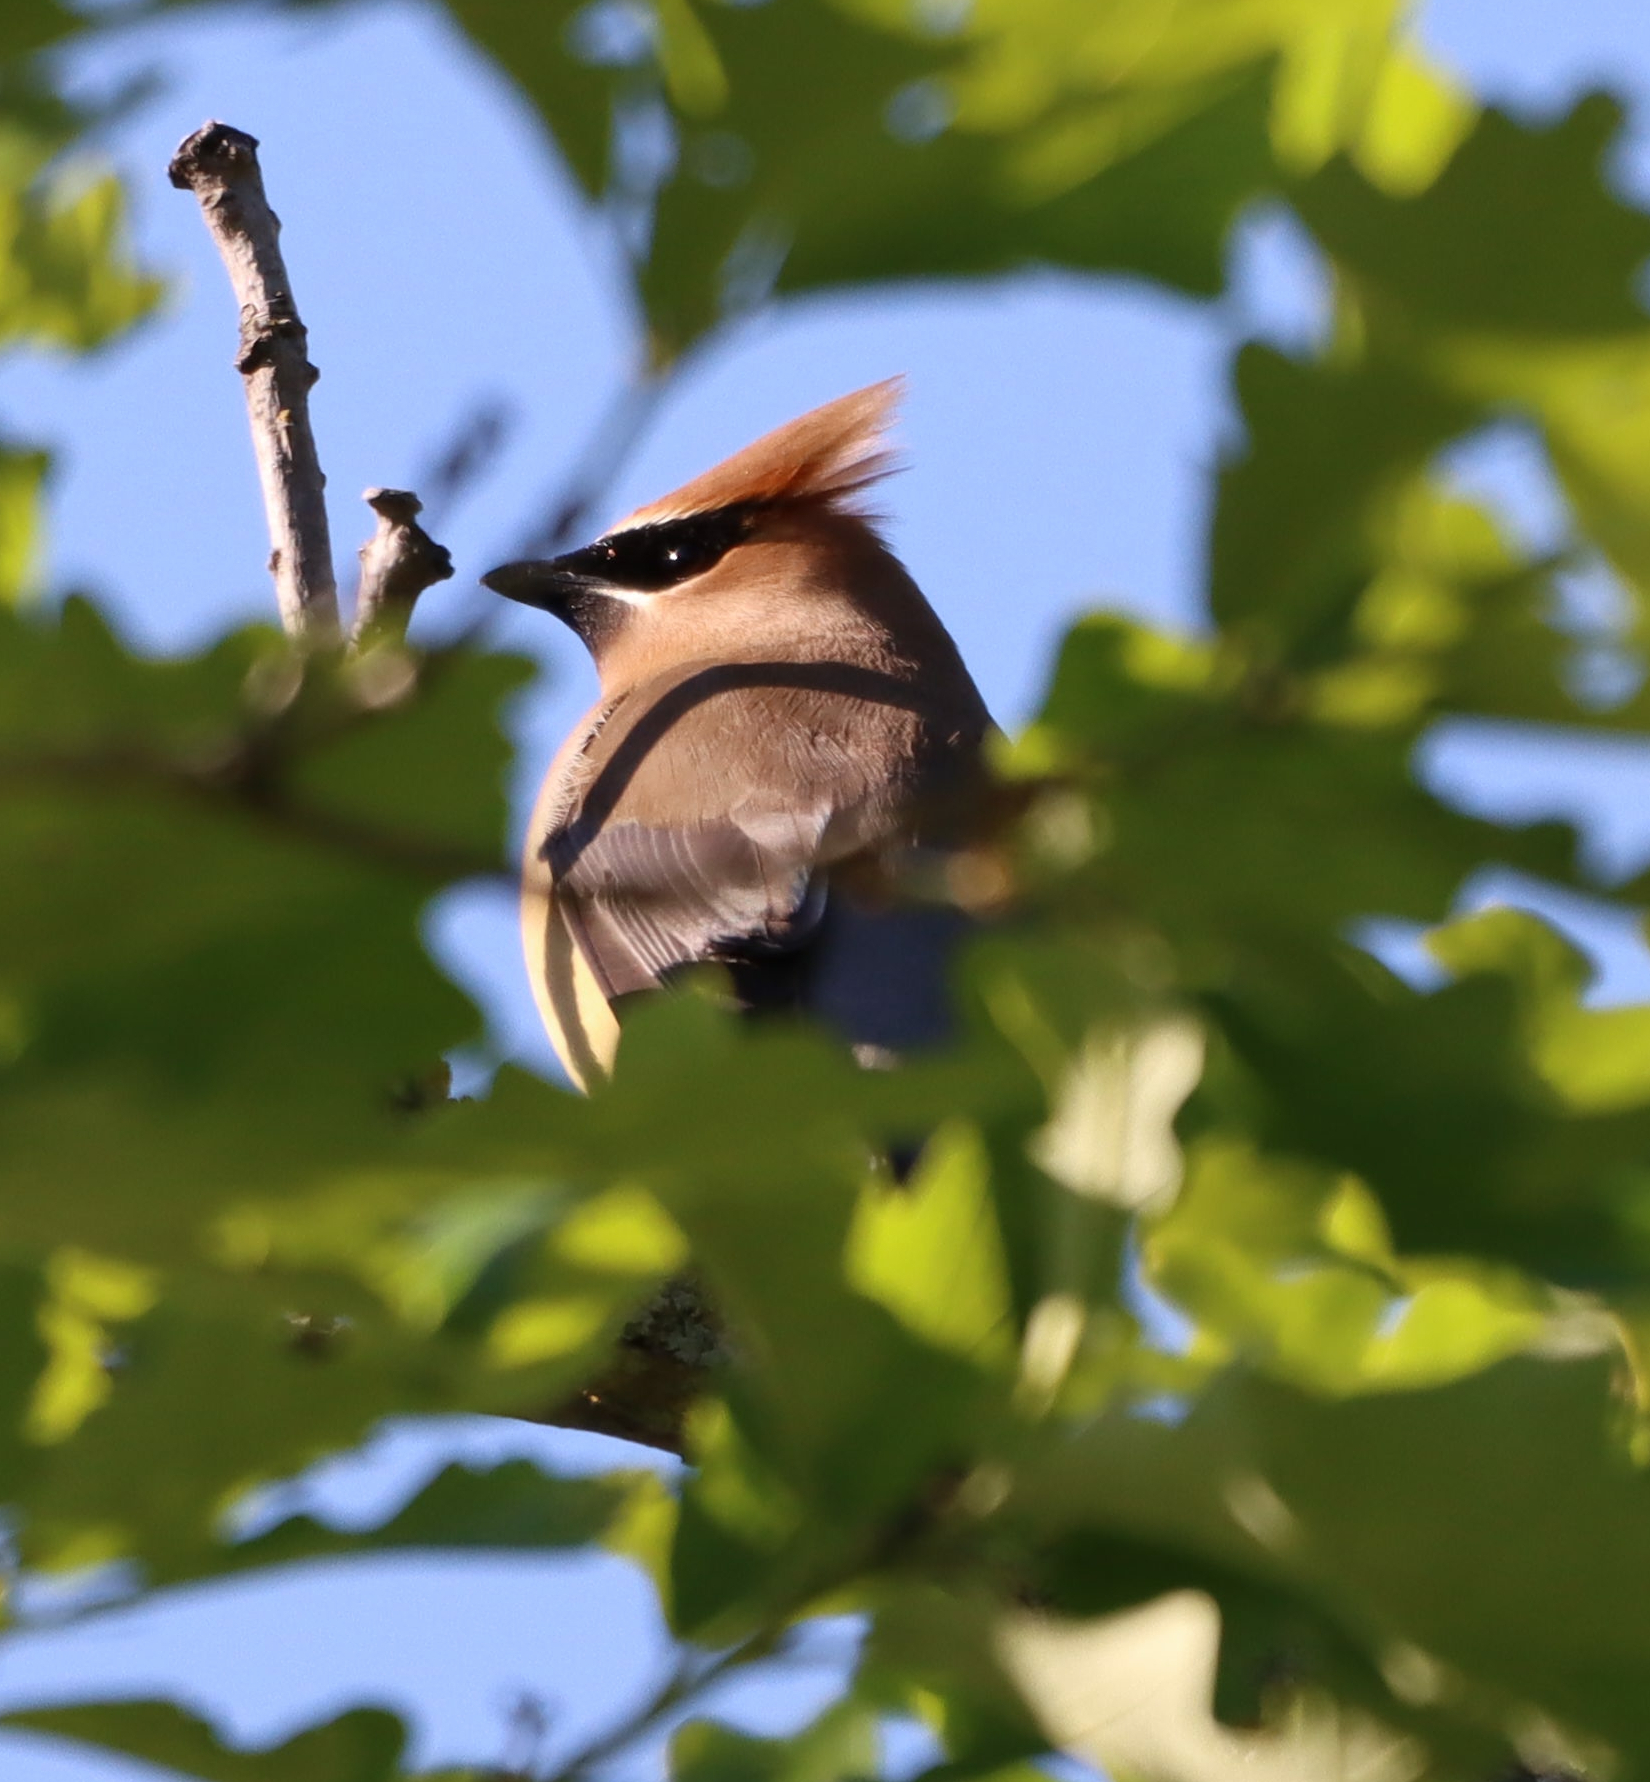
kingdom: Animalia
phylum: Chordata
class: Aves
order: Passeriformes
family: Bombycillidae
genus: Bombycilla
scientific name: Bombycilla cedrorum
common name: Cedar waxwing
